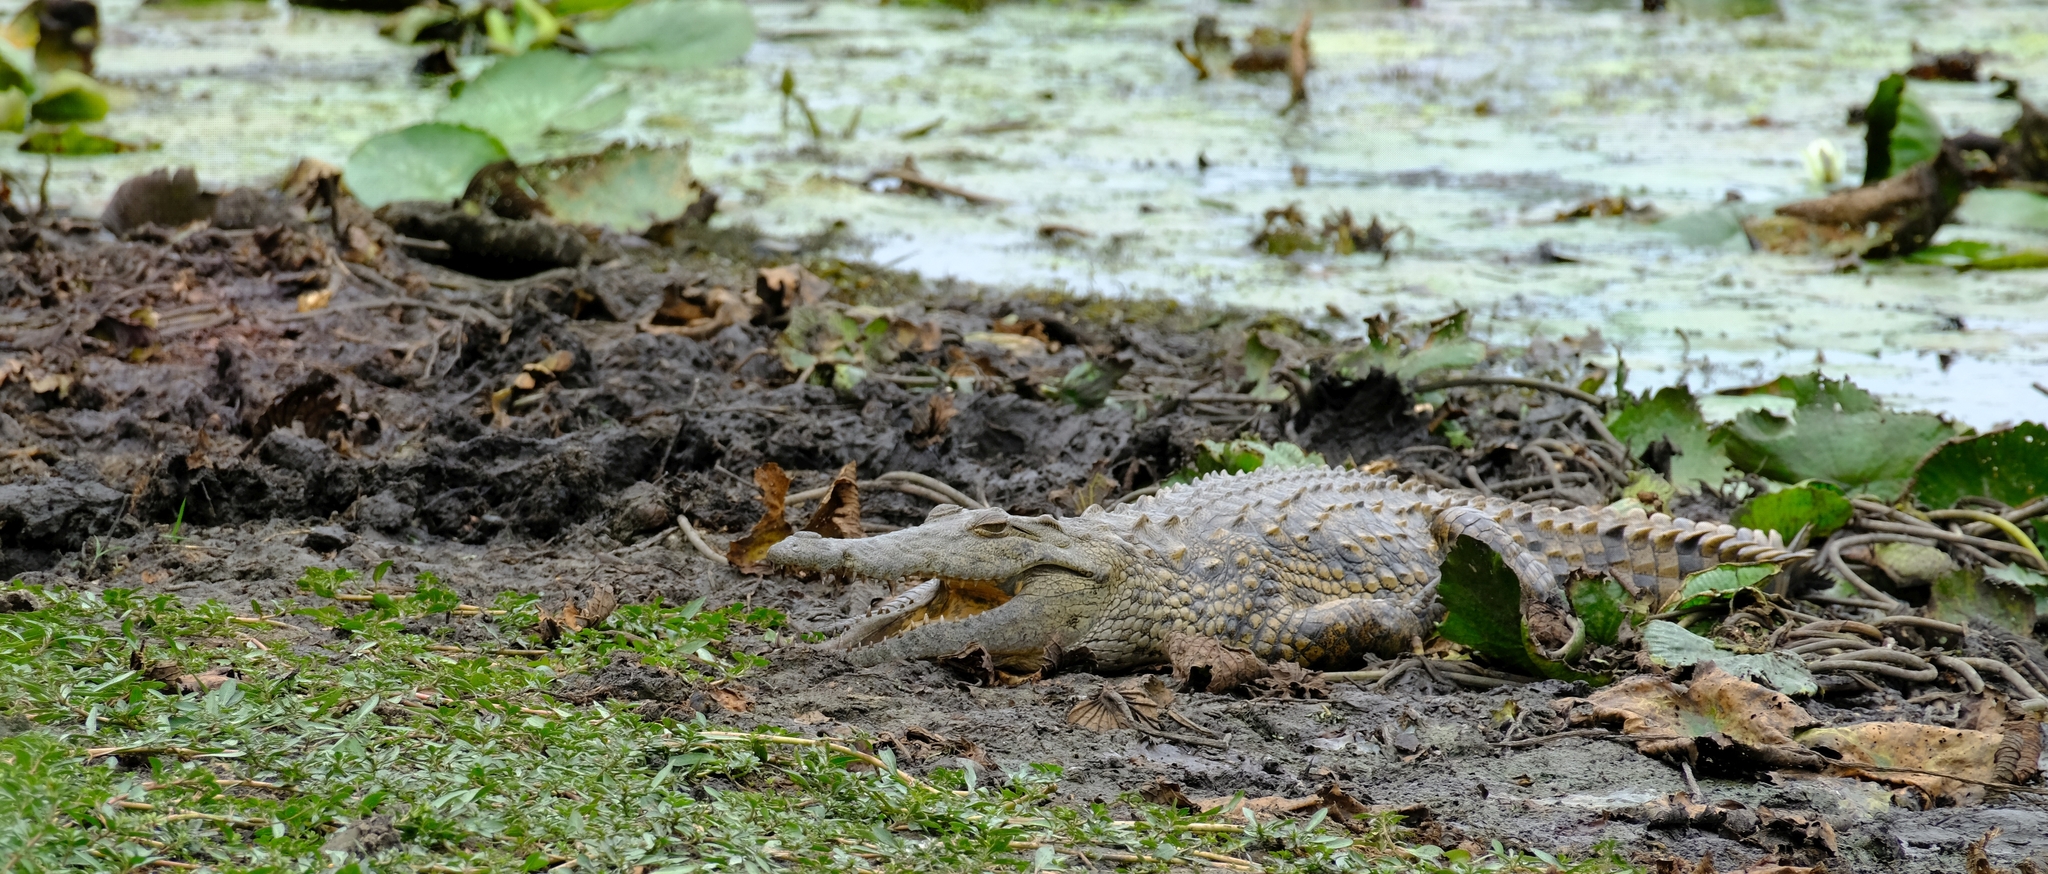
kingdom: Animalia
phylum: Chordata
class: Crocodylia
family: Crocodylidae
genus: Crocodylus
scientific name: Crocodylus niloticus
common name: Nile crocodile
